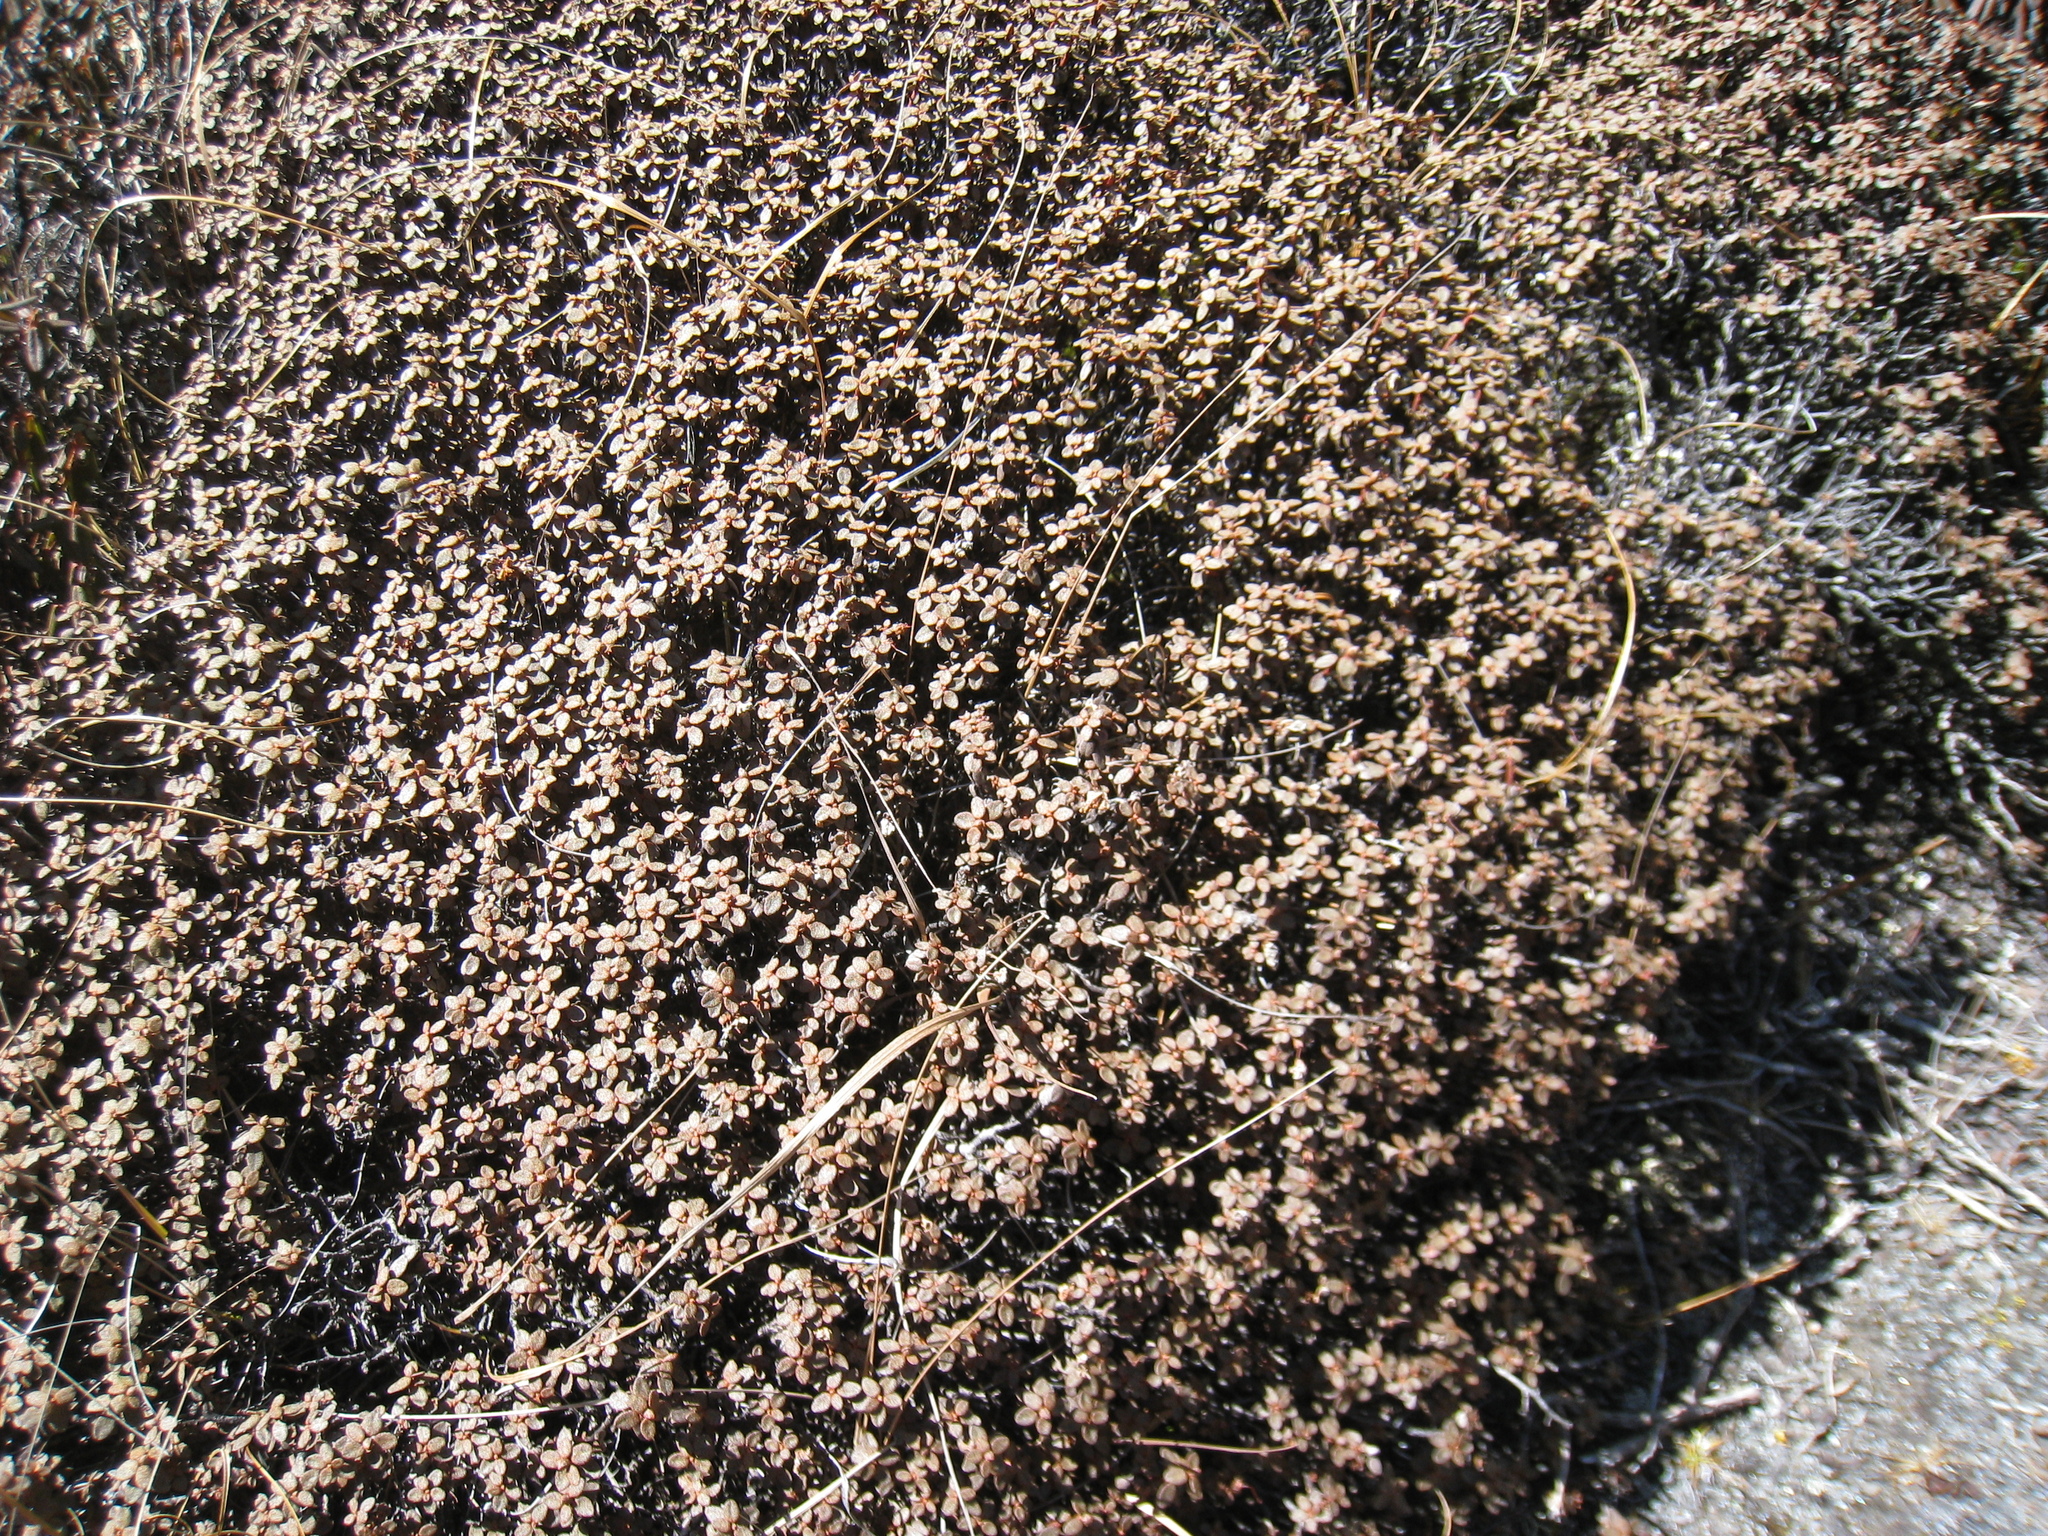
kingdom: Plantae
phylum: Tracheophyta
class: Magnoliopsida
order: Ericales
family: Ericaceae
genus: Rhododendron
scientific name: Rhododendron nivale
